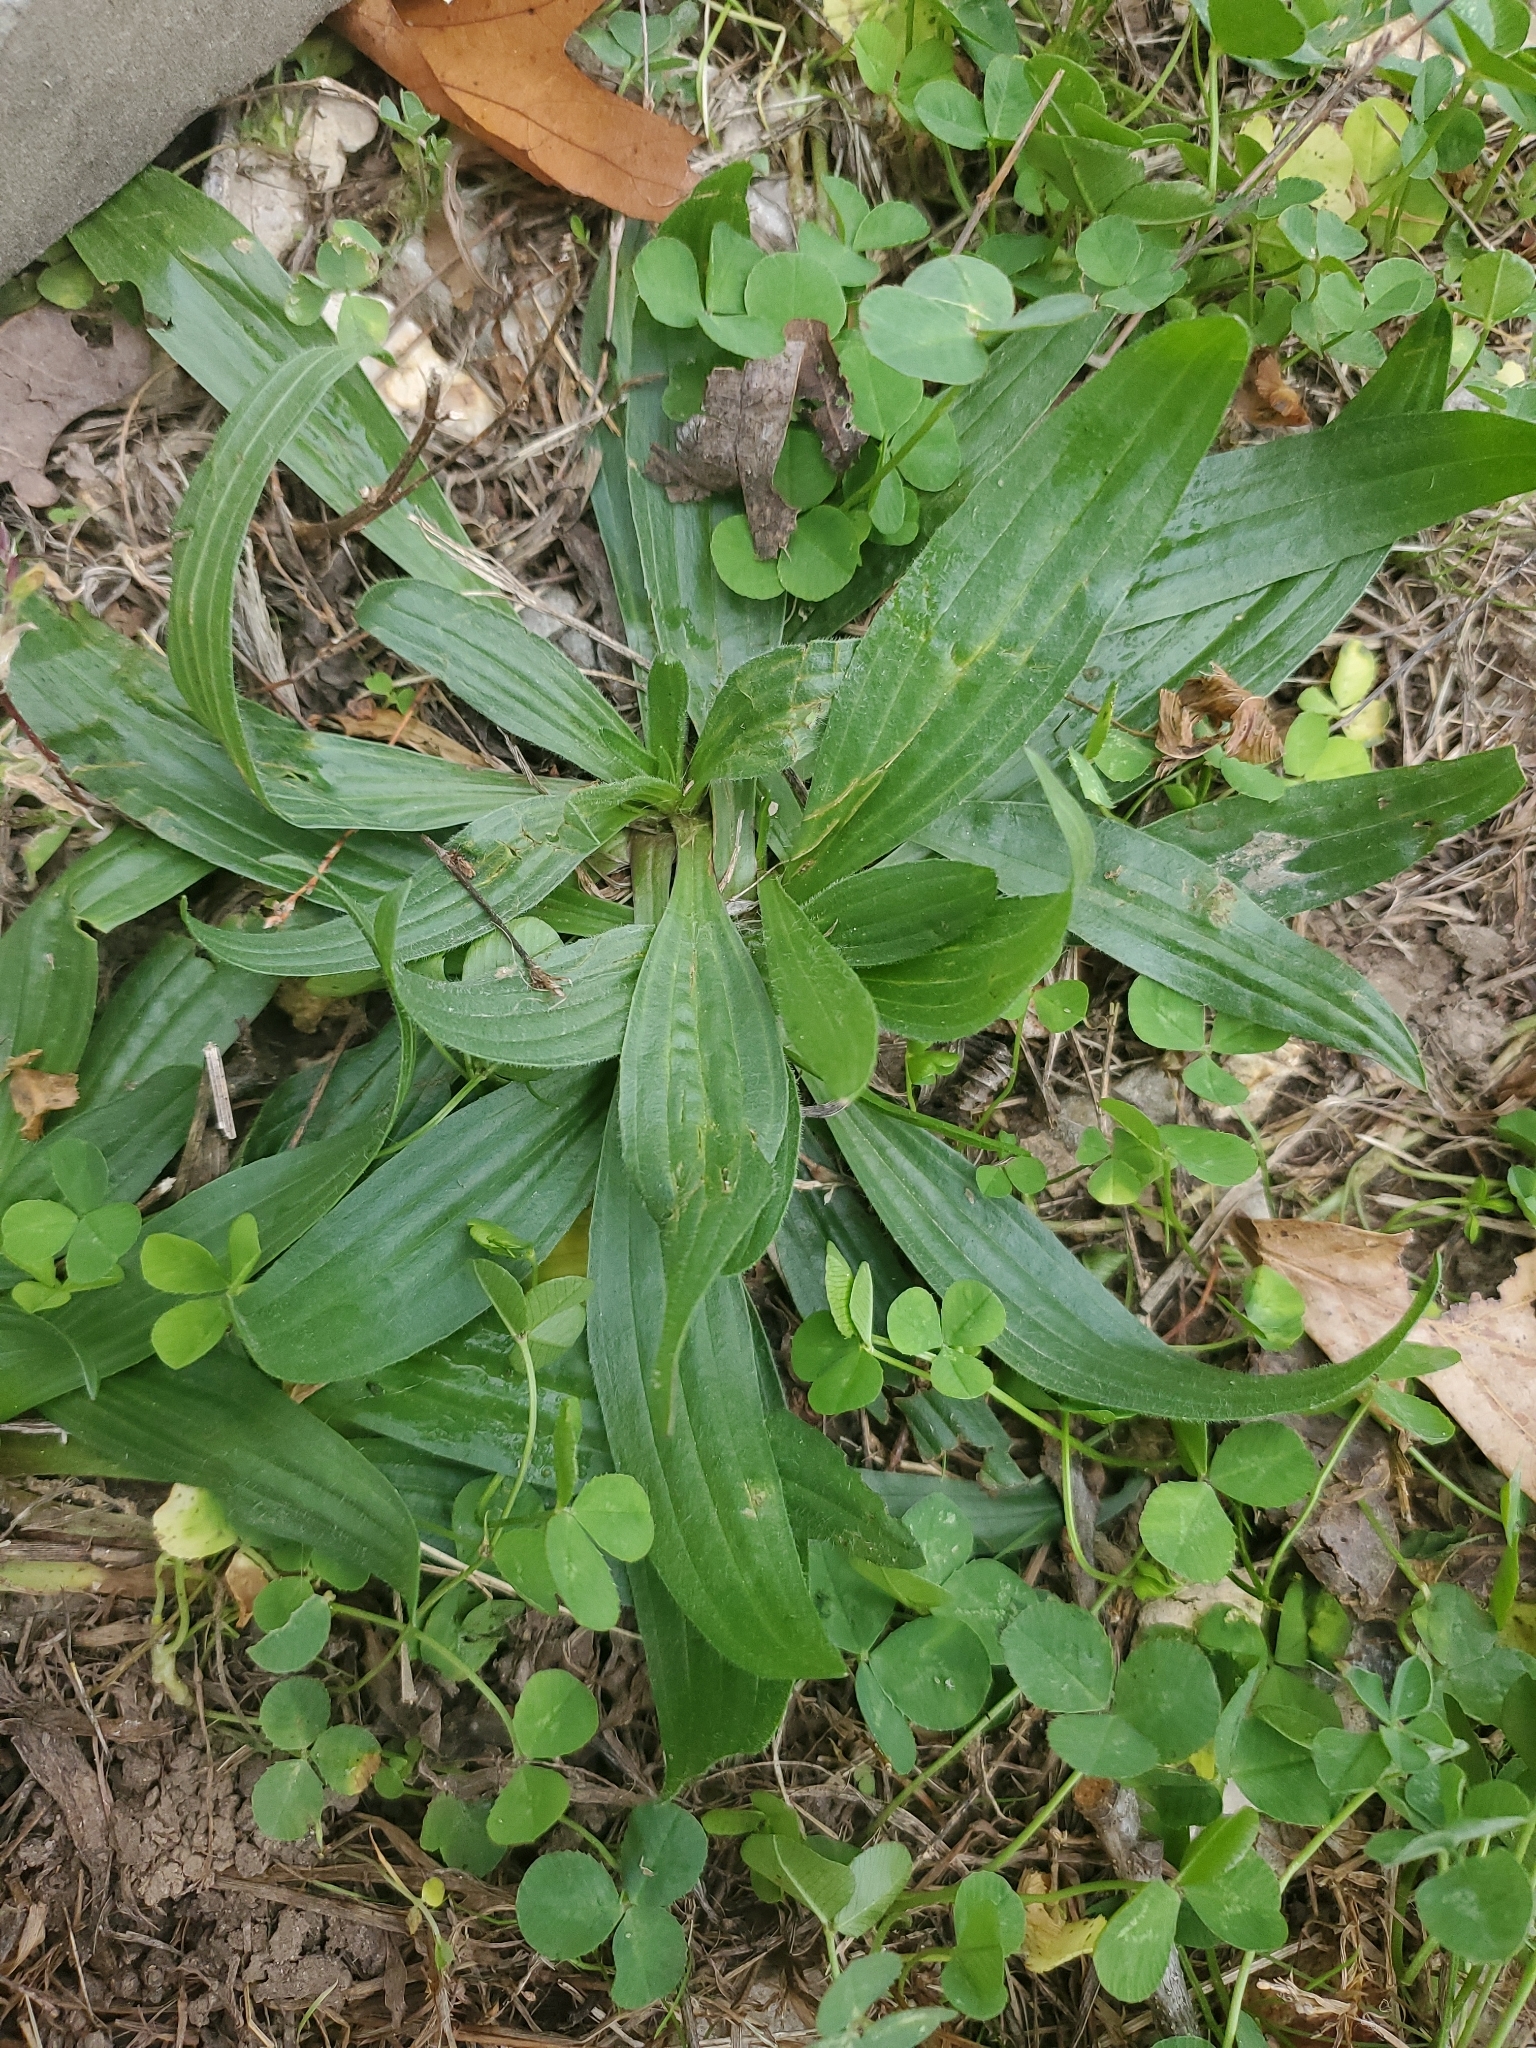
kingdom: Plantae
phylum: Tracheophyta
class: Magnoliopsida
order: Lamiales
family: Plantaginaceae
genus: Plantago
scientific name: Plantago lanceolata
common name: Ribwort plantain
